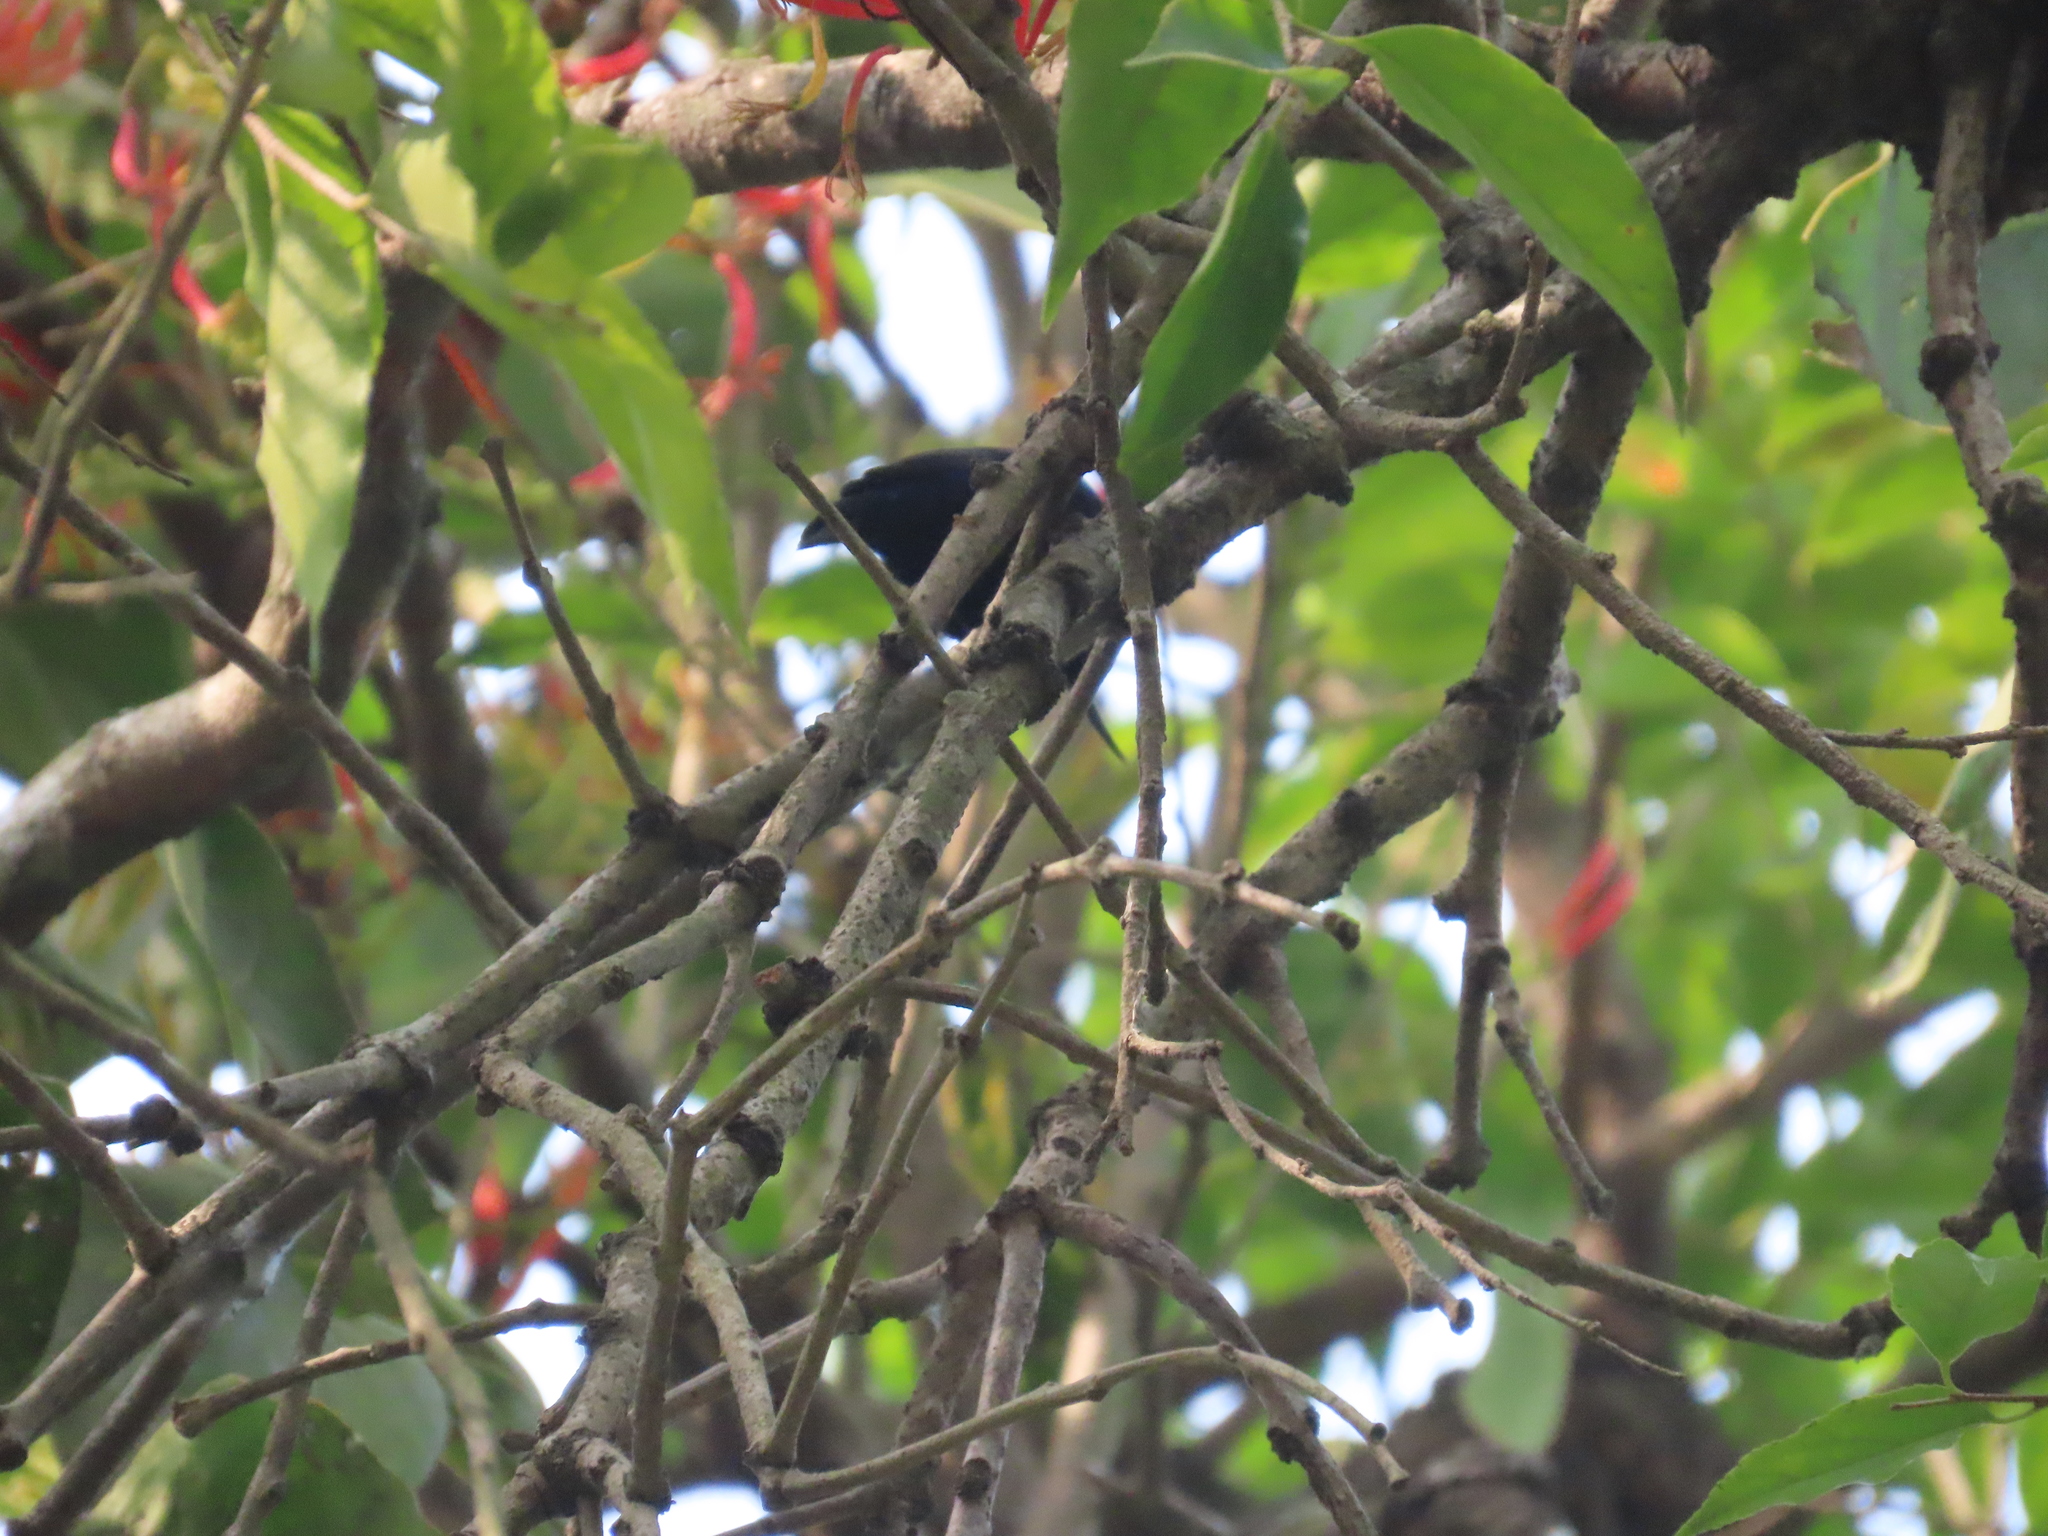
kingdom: Animalia
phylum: Chordata
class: Aves
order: Passeriformes
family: Nectariniidae
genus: Cinnyris
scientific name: Cinnyris asiaticus
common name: Purple sunbird
